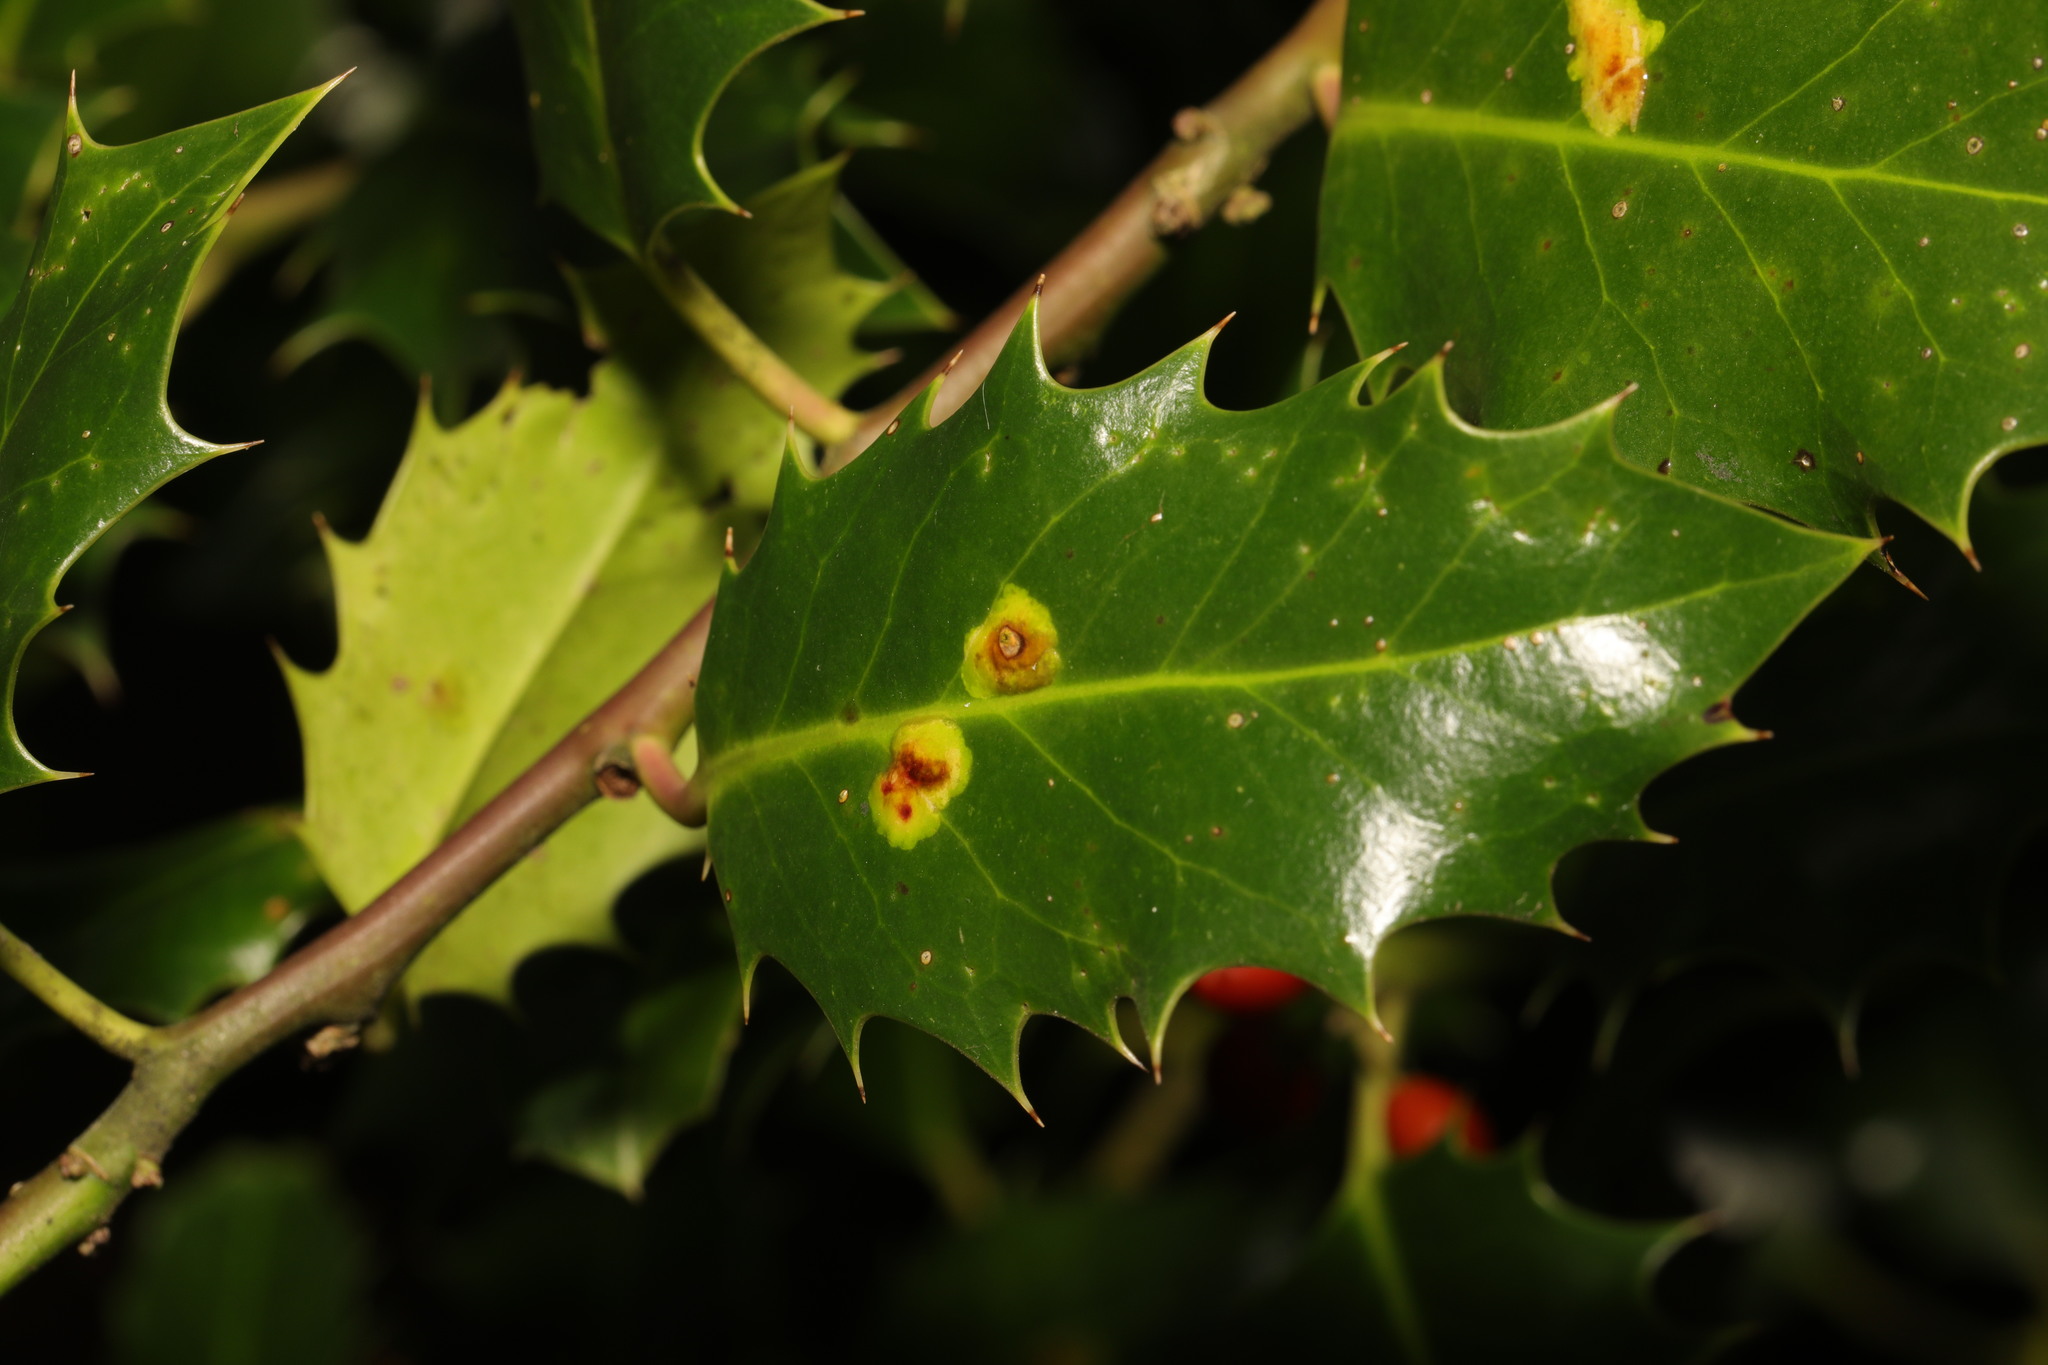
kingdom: Animalia
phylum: Arthropoda
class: Insecta
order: Diptera
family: Agromyzidae
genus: Phytomyza
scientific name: Phytomyza ilicis
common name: Holly leafminer
